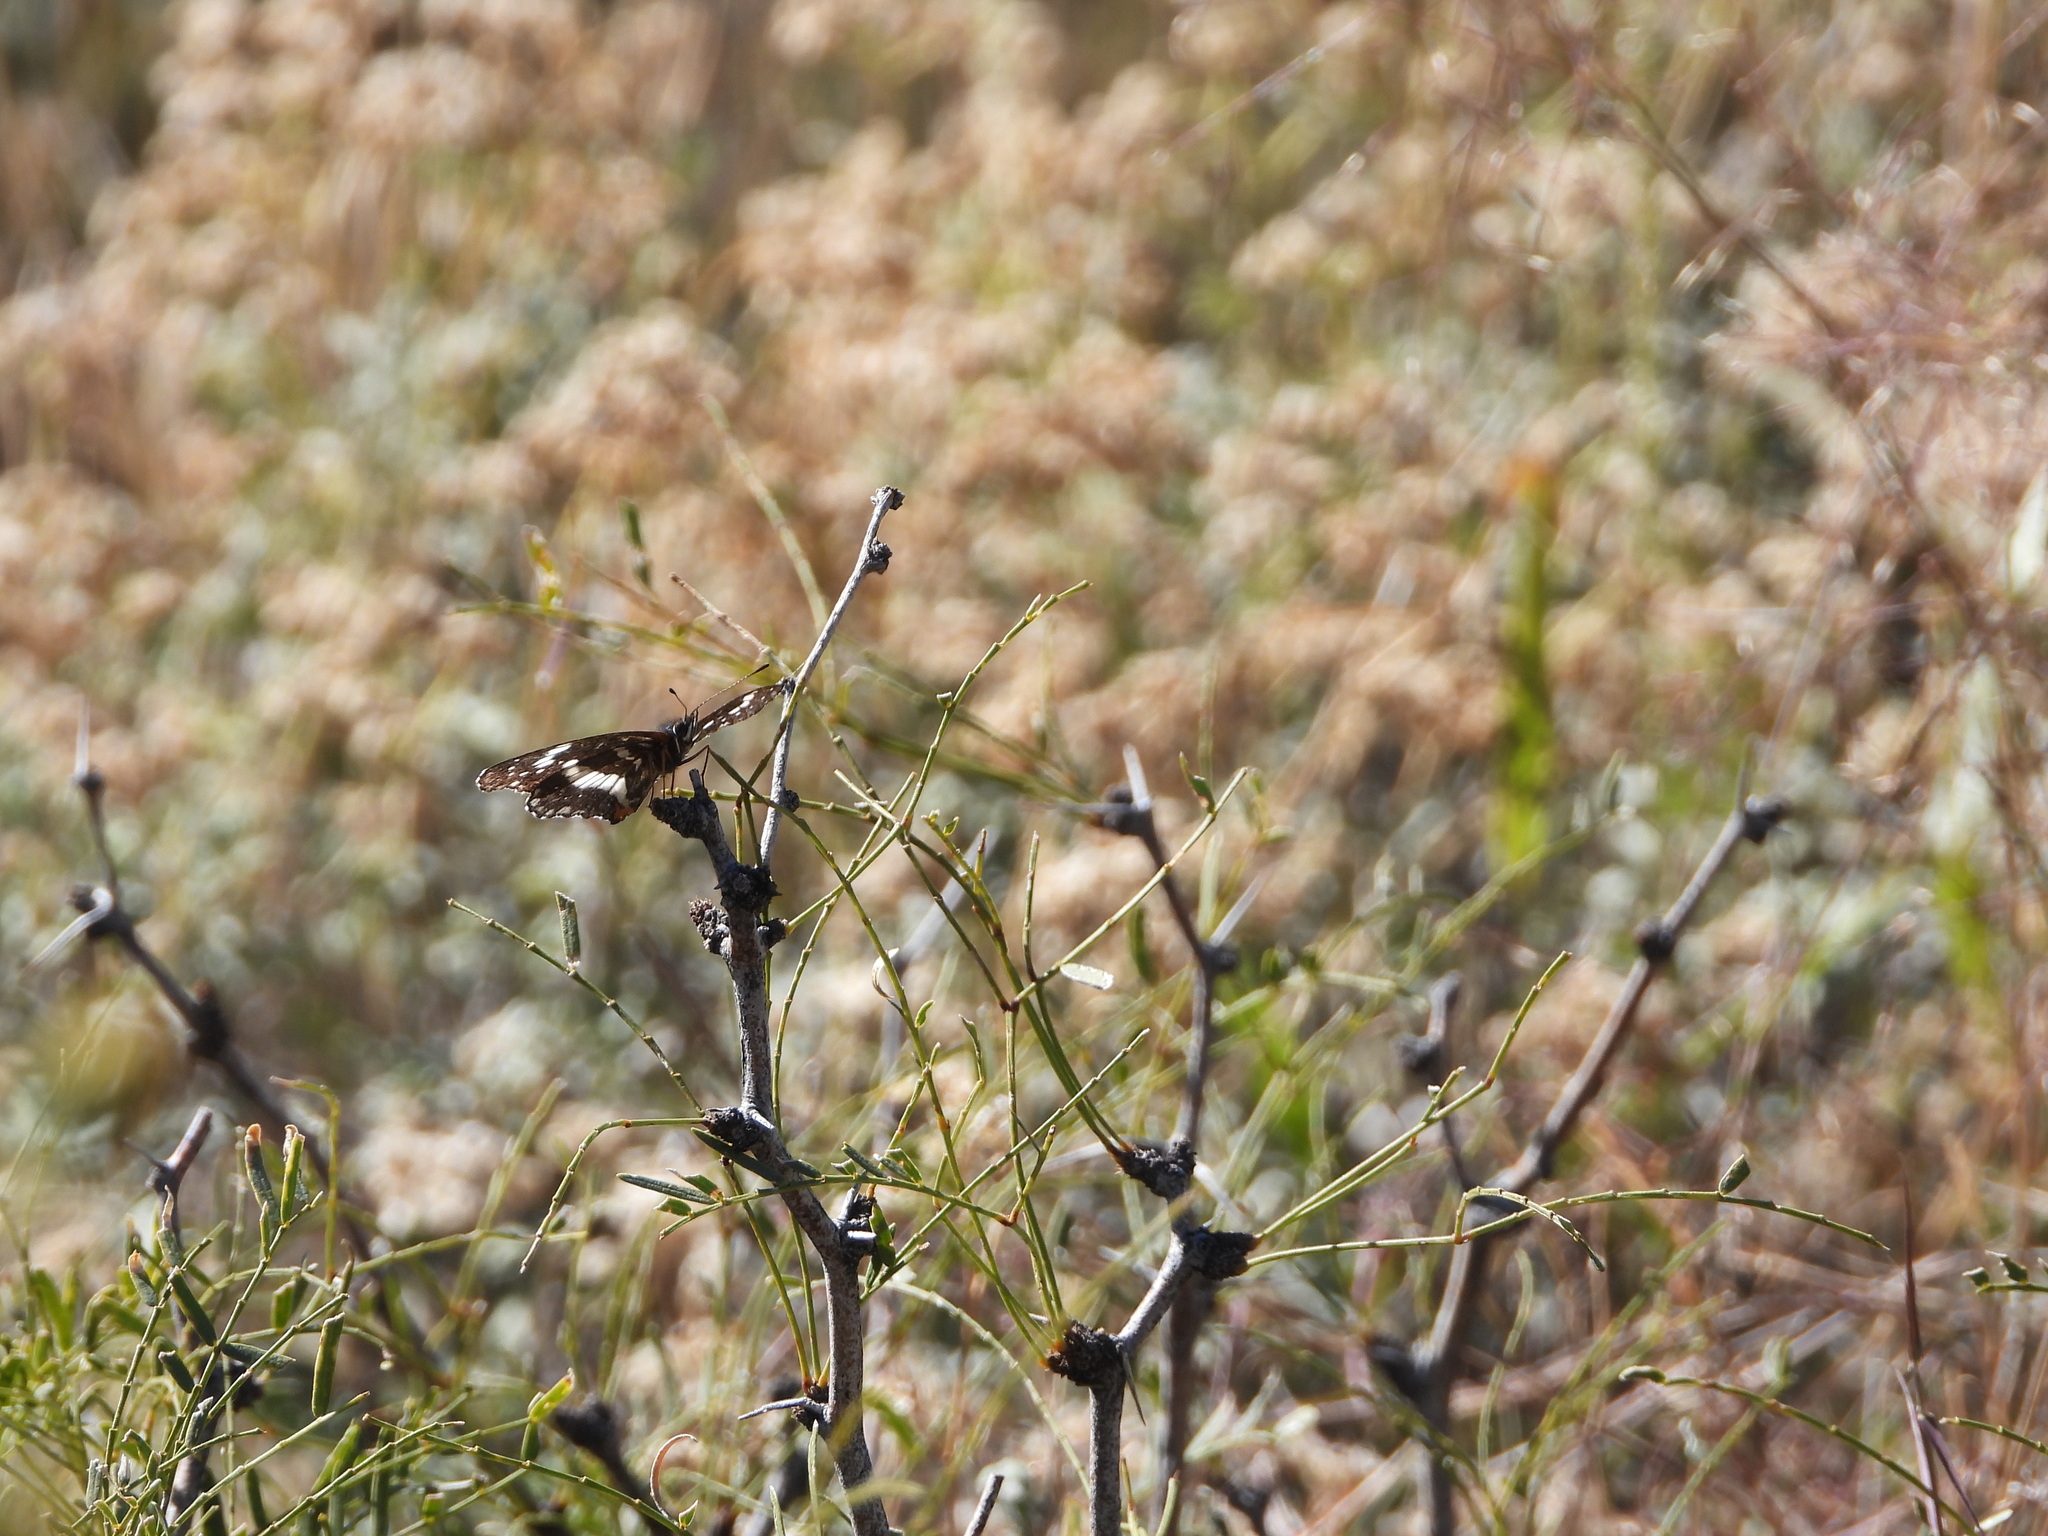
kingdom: Animalia
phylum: Arthropoda
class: Insecta
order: Lepidoptera
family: Nymphalidae
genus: Chlosyne
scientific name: Chlosyne lacinia
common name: Bordered patch
